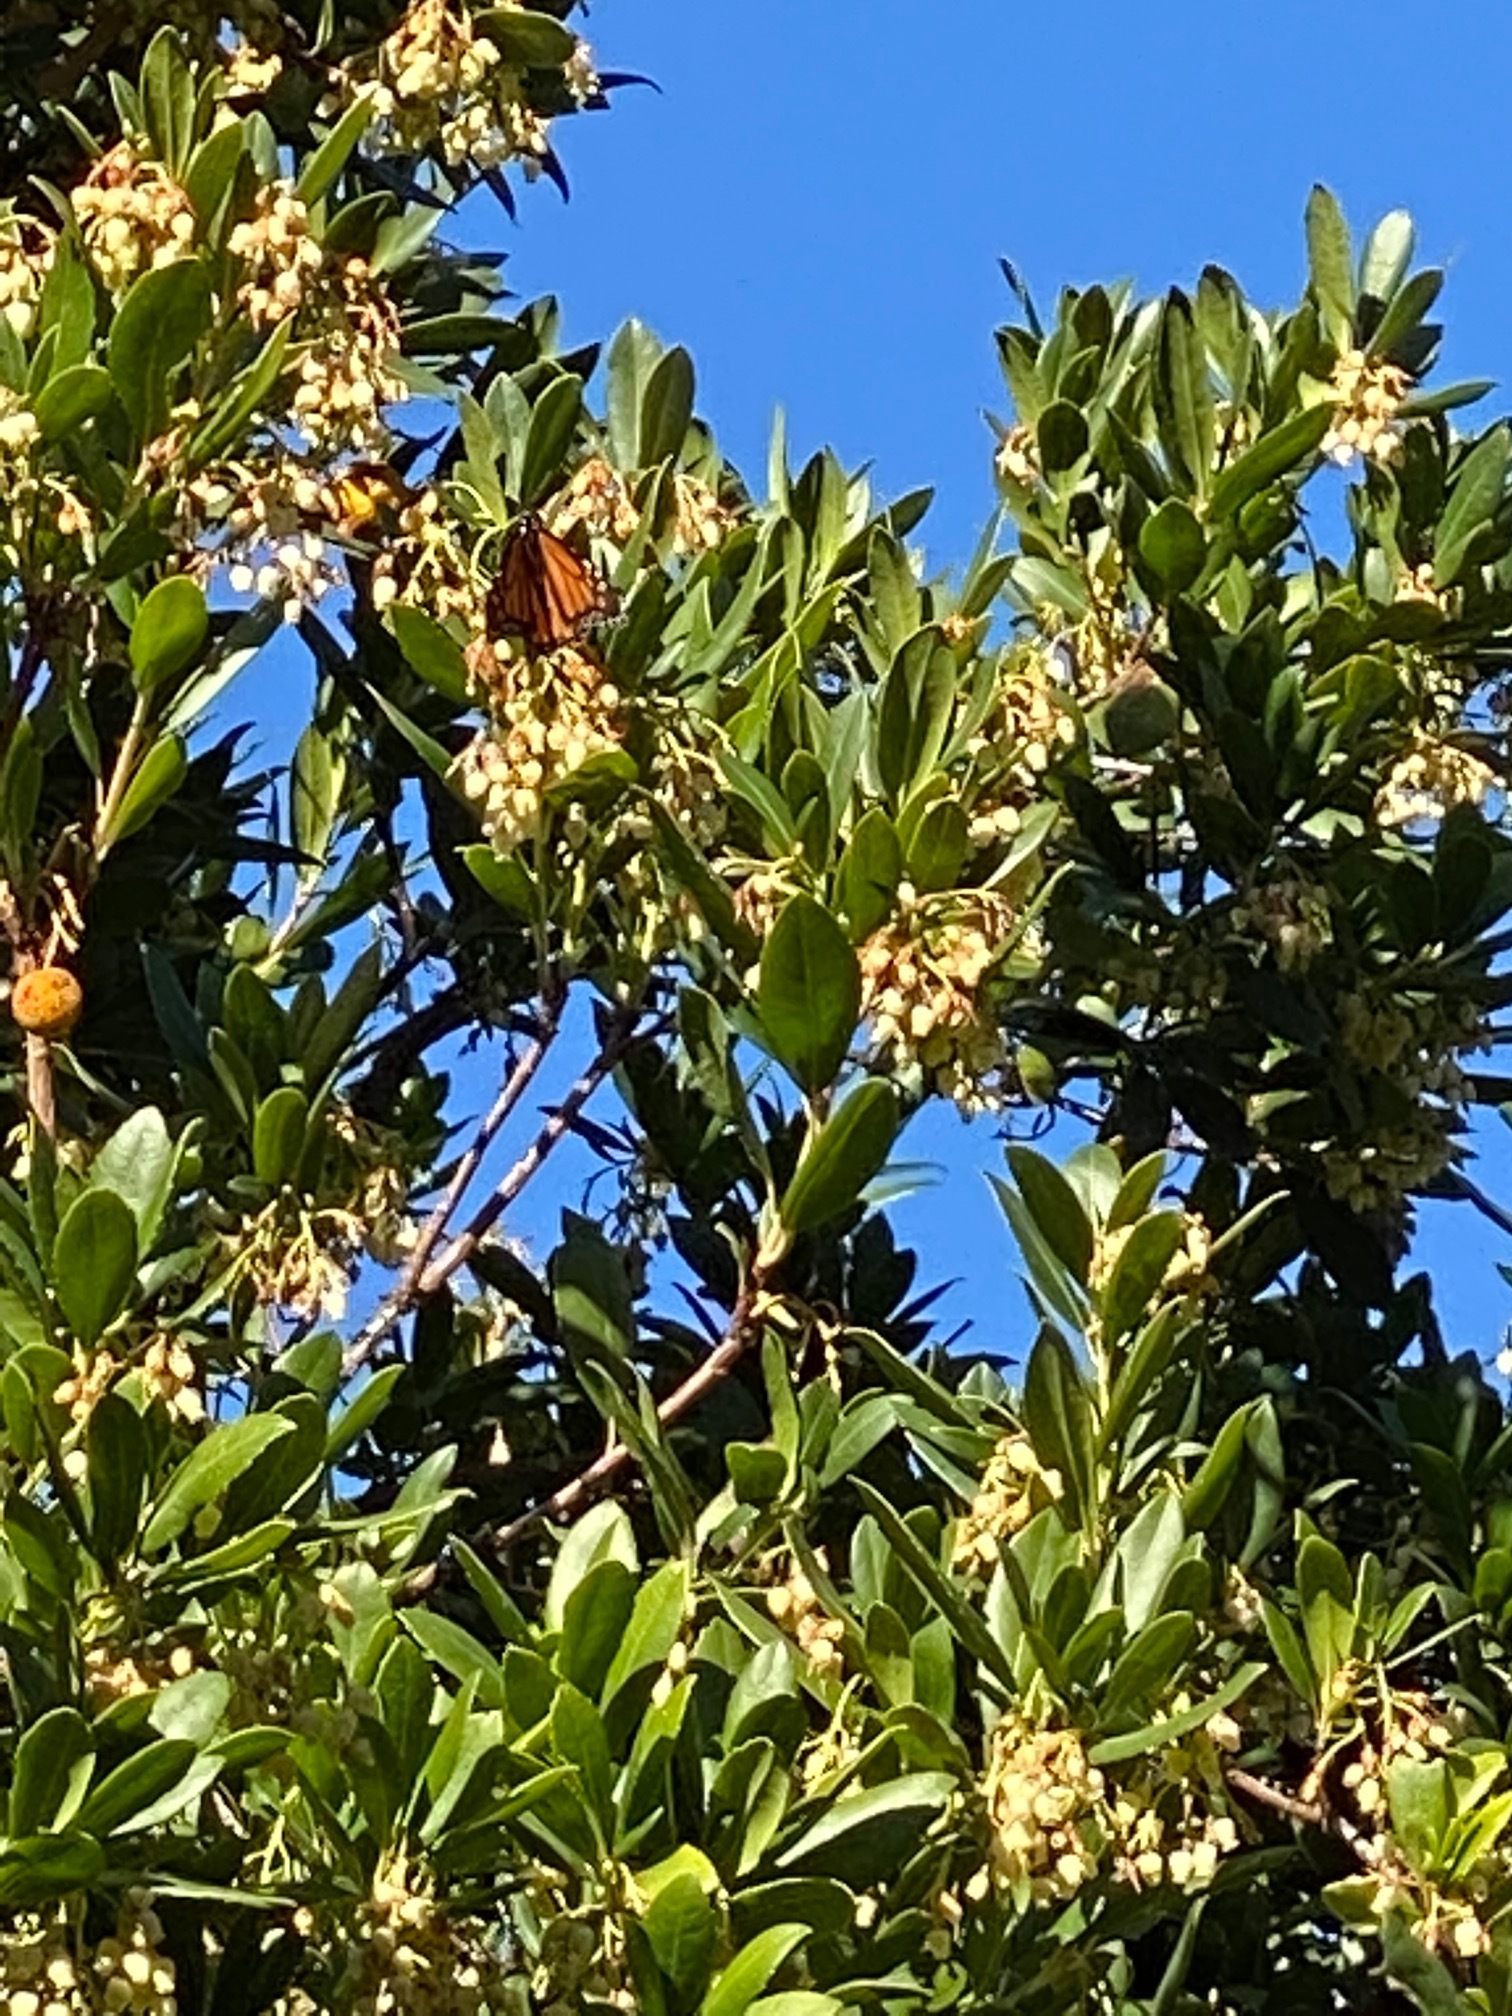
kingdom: Animalia
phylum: Arthropoda
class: Insecta
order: Lepidoptera
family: Nymphalidae
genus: Danaus
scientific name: Danaus plexippus
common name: Monarch
